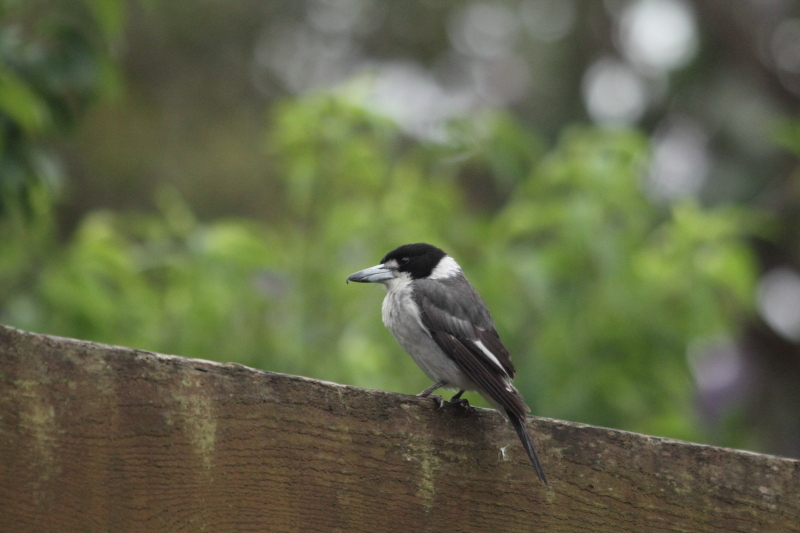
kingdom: Animalia
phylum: Chordata
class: Aves
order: Passeriformes
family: Cracticidae
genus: Cracticus
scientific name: Cracticus torquatus
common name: Grey butcherbird
